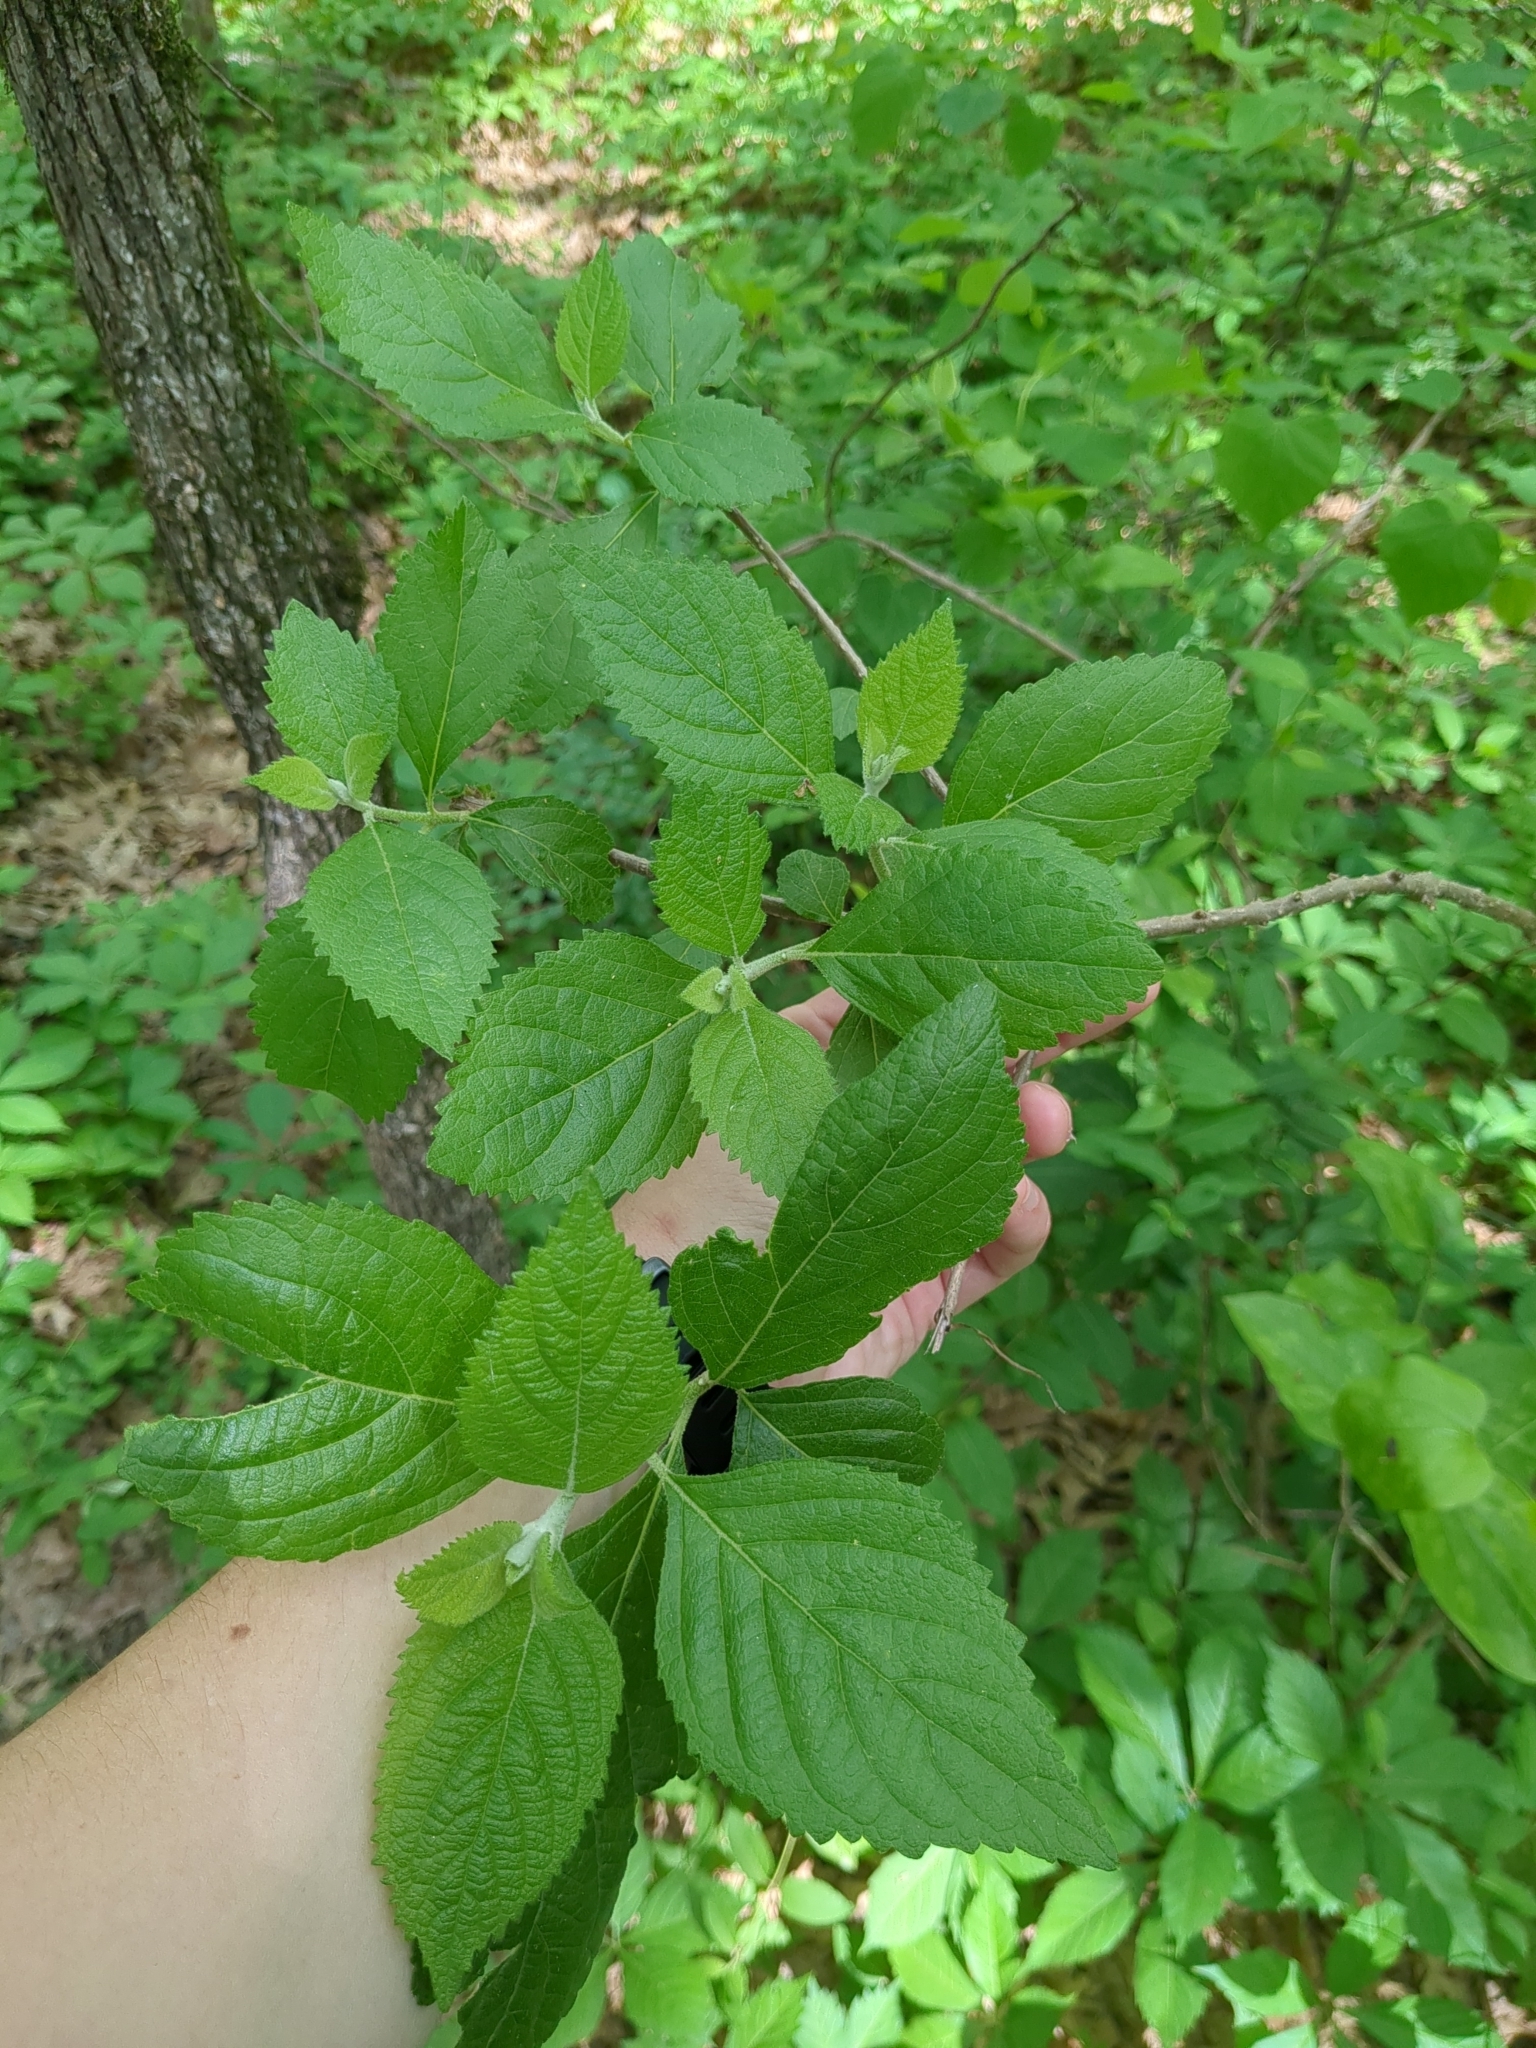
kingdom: Plantae
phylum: Tracheophyta
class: Magnoliopsida
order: Lamiales
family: Lamiaceae
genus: Callicarpa
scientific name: Callicarpa americana
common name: American beautyberry
